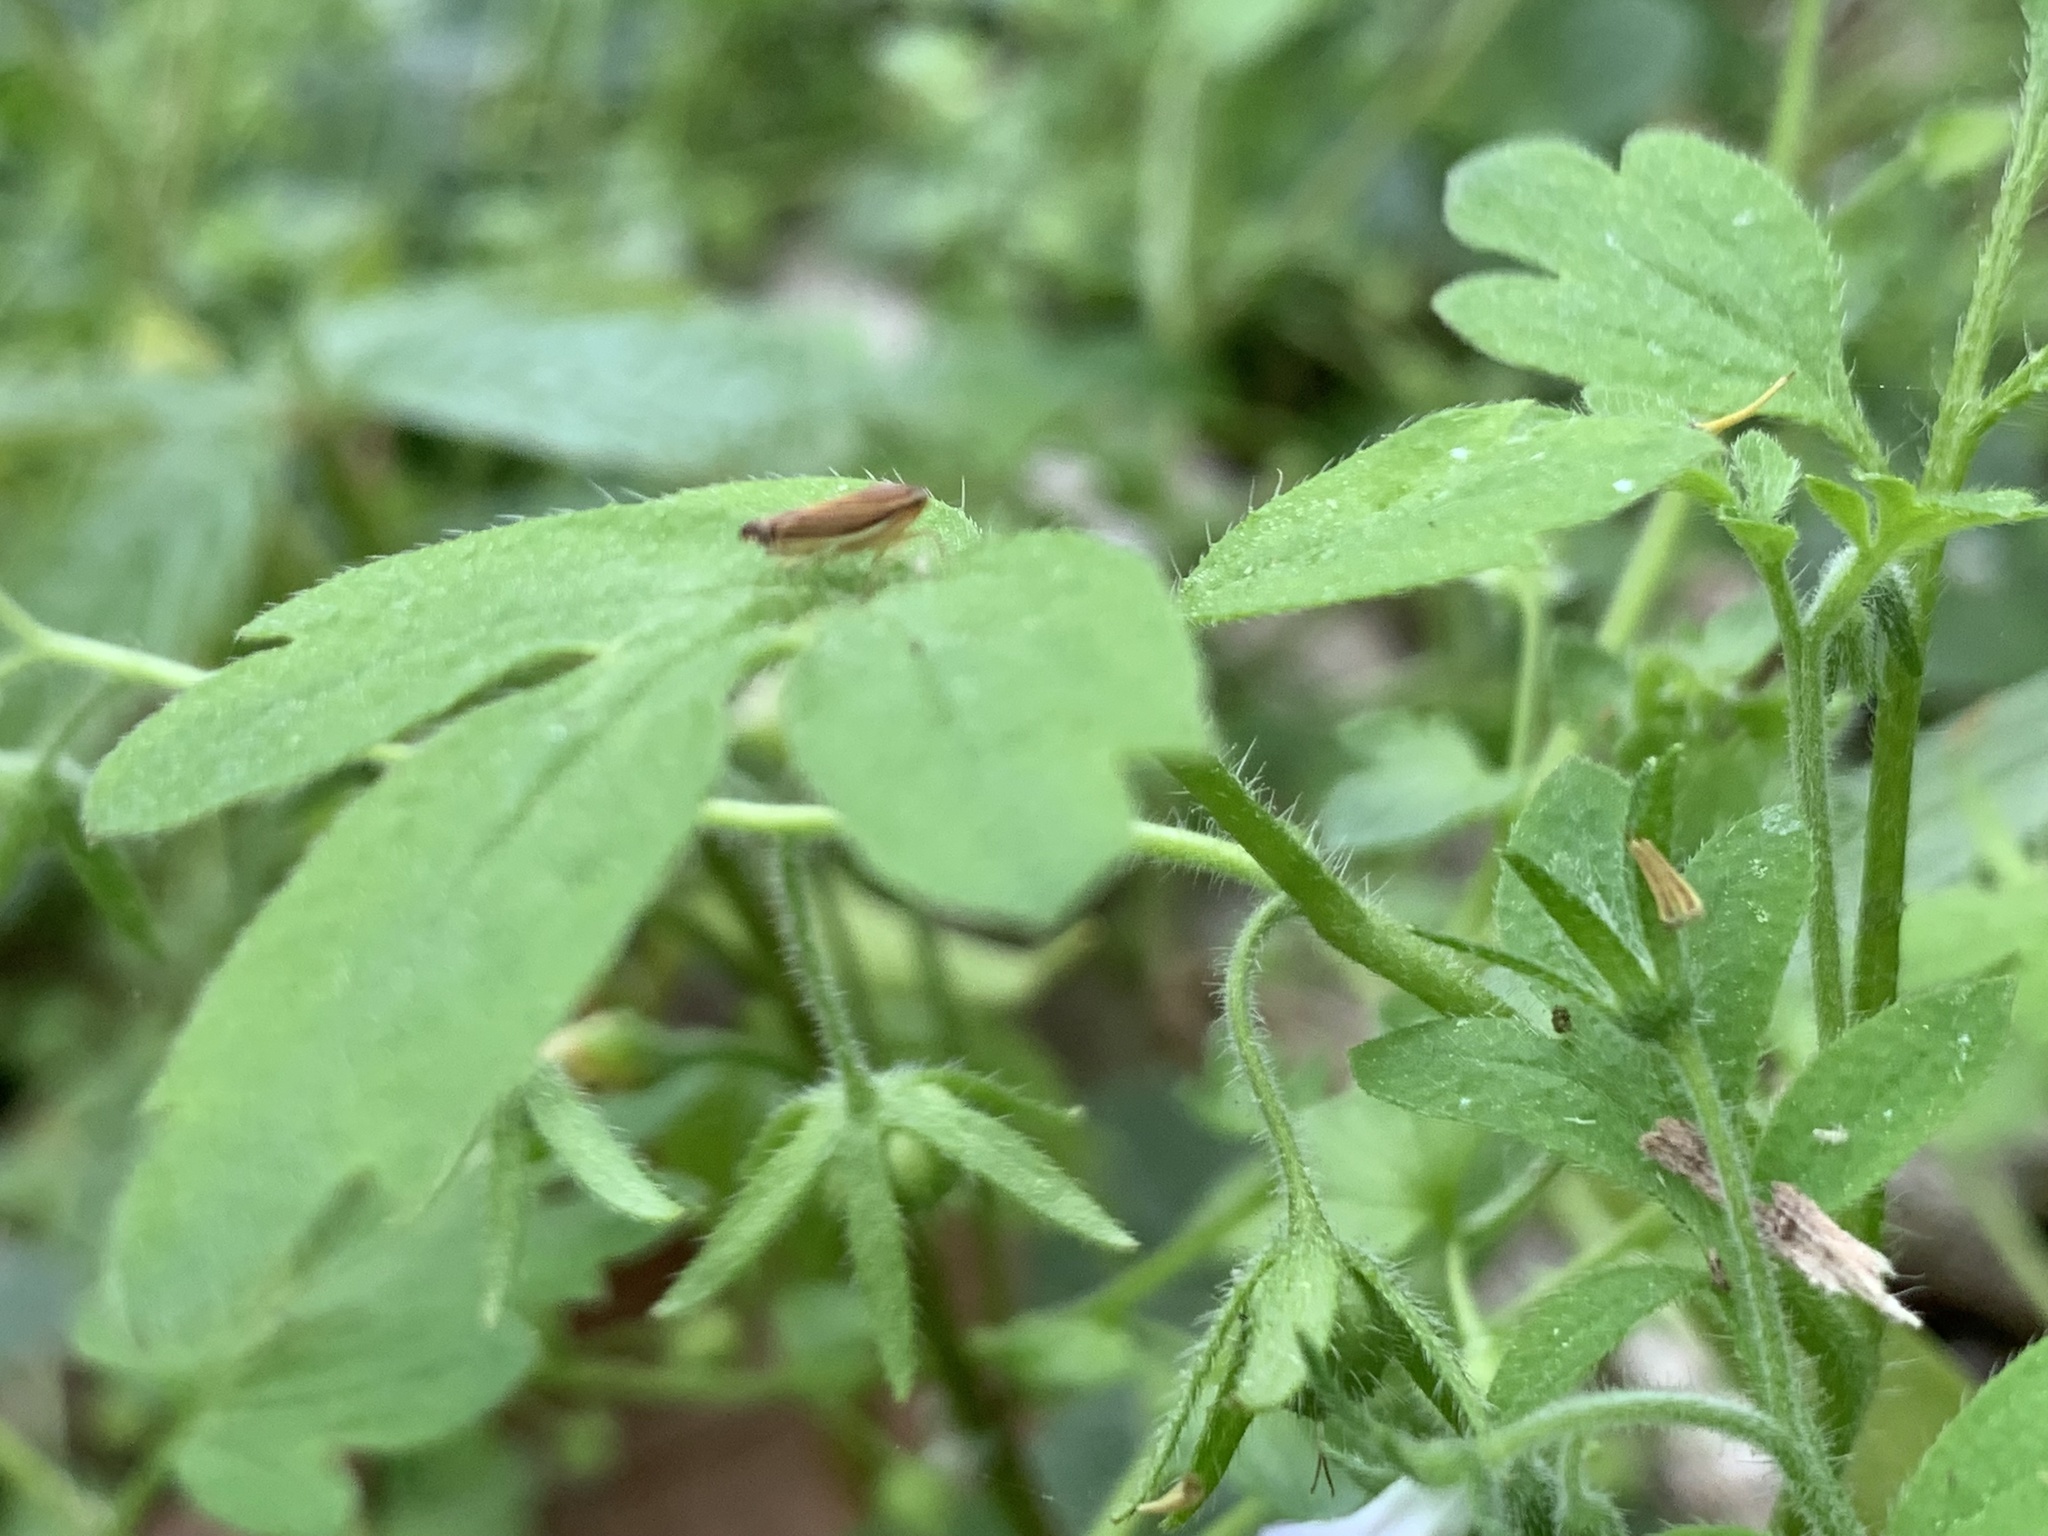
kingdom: Animalia
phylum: Arthropoda
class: Insecta
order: Hemiptera
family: Cicadellidae
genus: Sibovia
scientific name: Sibovia occatoria
